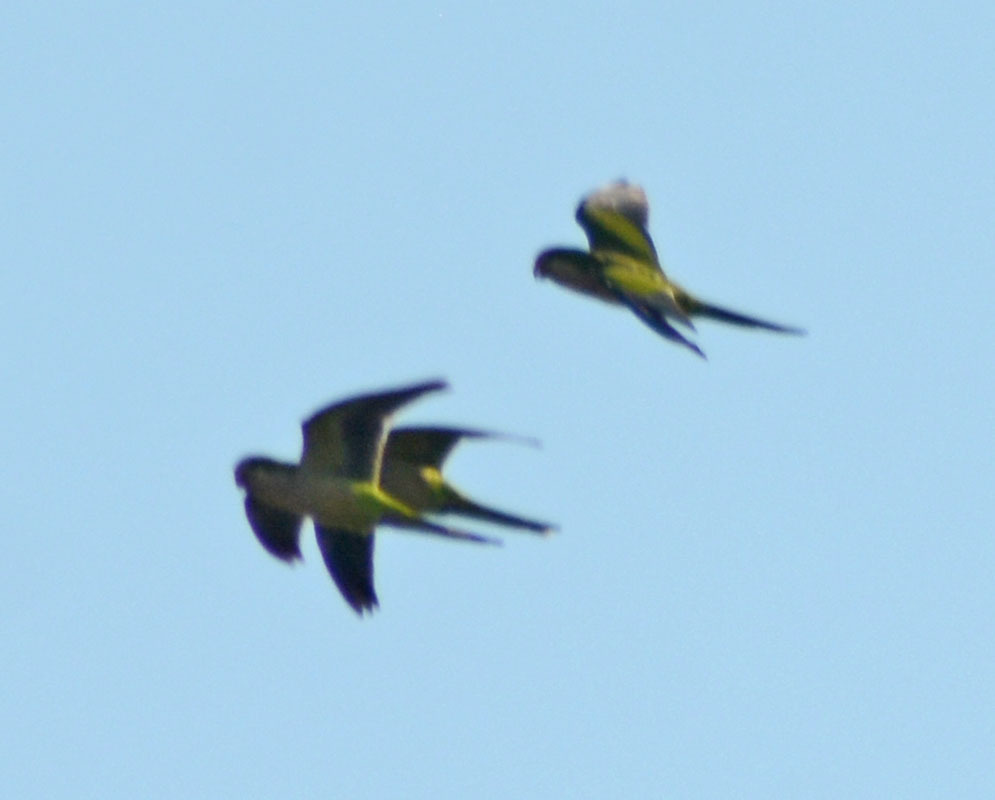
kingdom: Animalia
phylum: Chordata
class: Aves
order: Psittaciformes
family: Psittacidae
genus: Myiopsitta
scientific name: Myiopsitta monachus
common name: Monk parakeet
